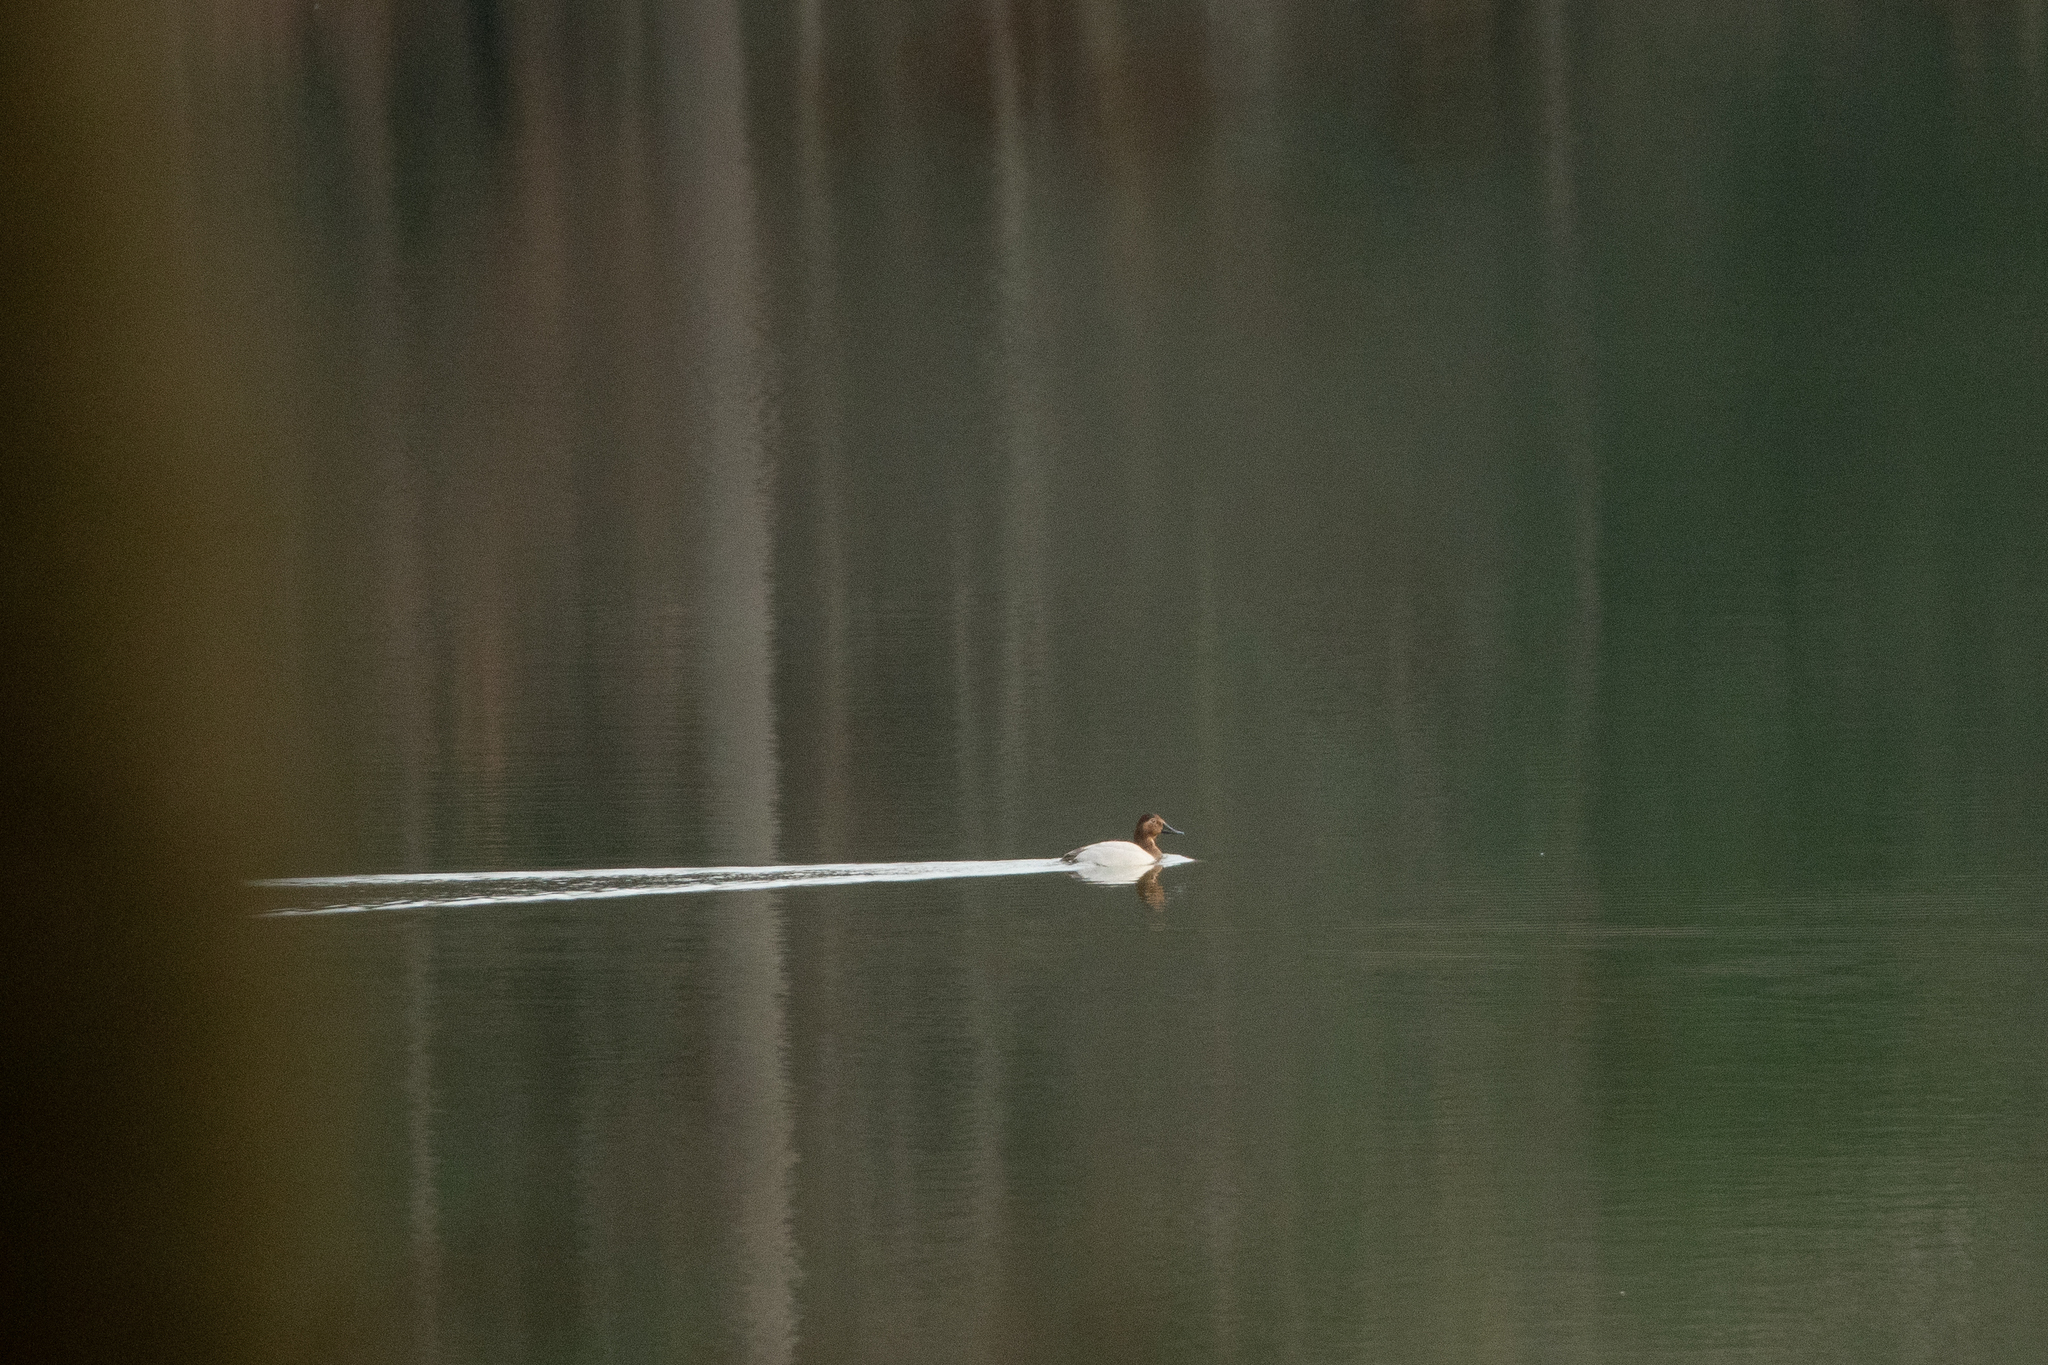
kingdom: Animalia
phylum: Chordata
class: Aves
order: Anseriformes
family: Anatidae
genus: Aythya
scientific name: Aythya valisineria
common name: Canvasback
